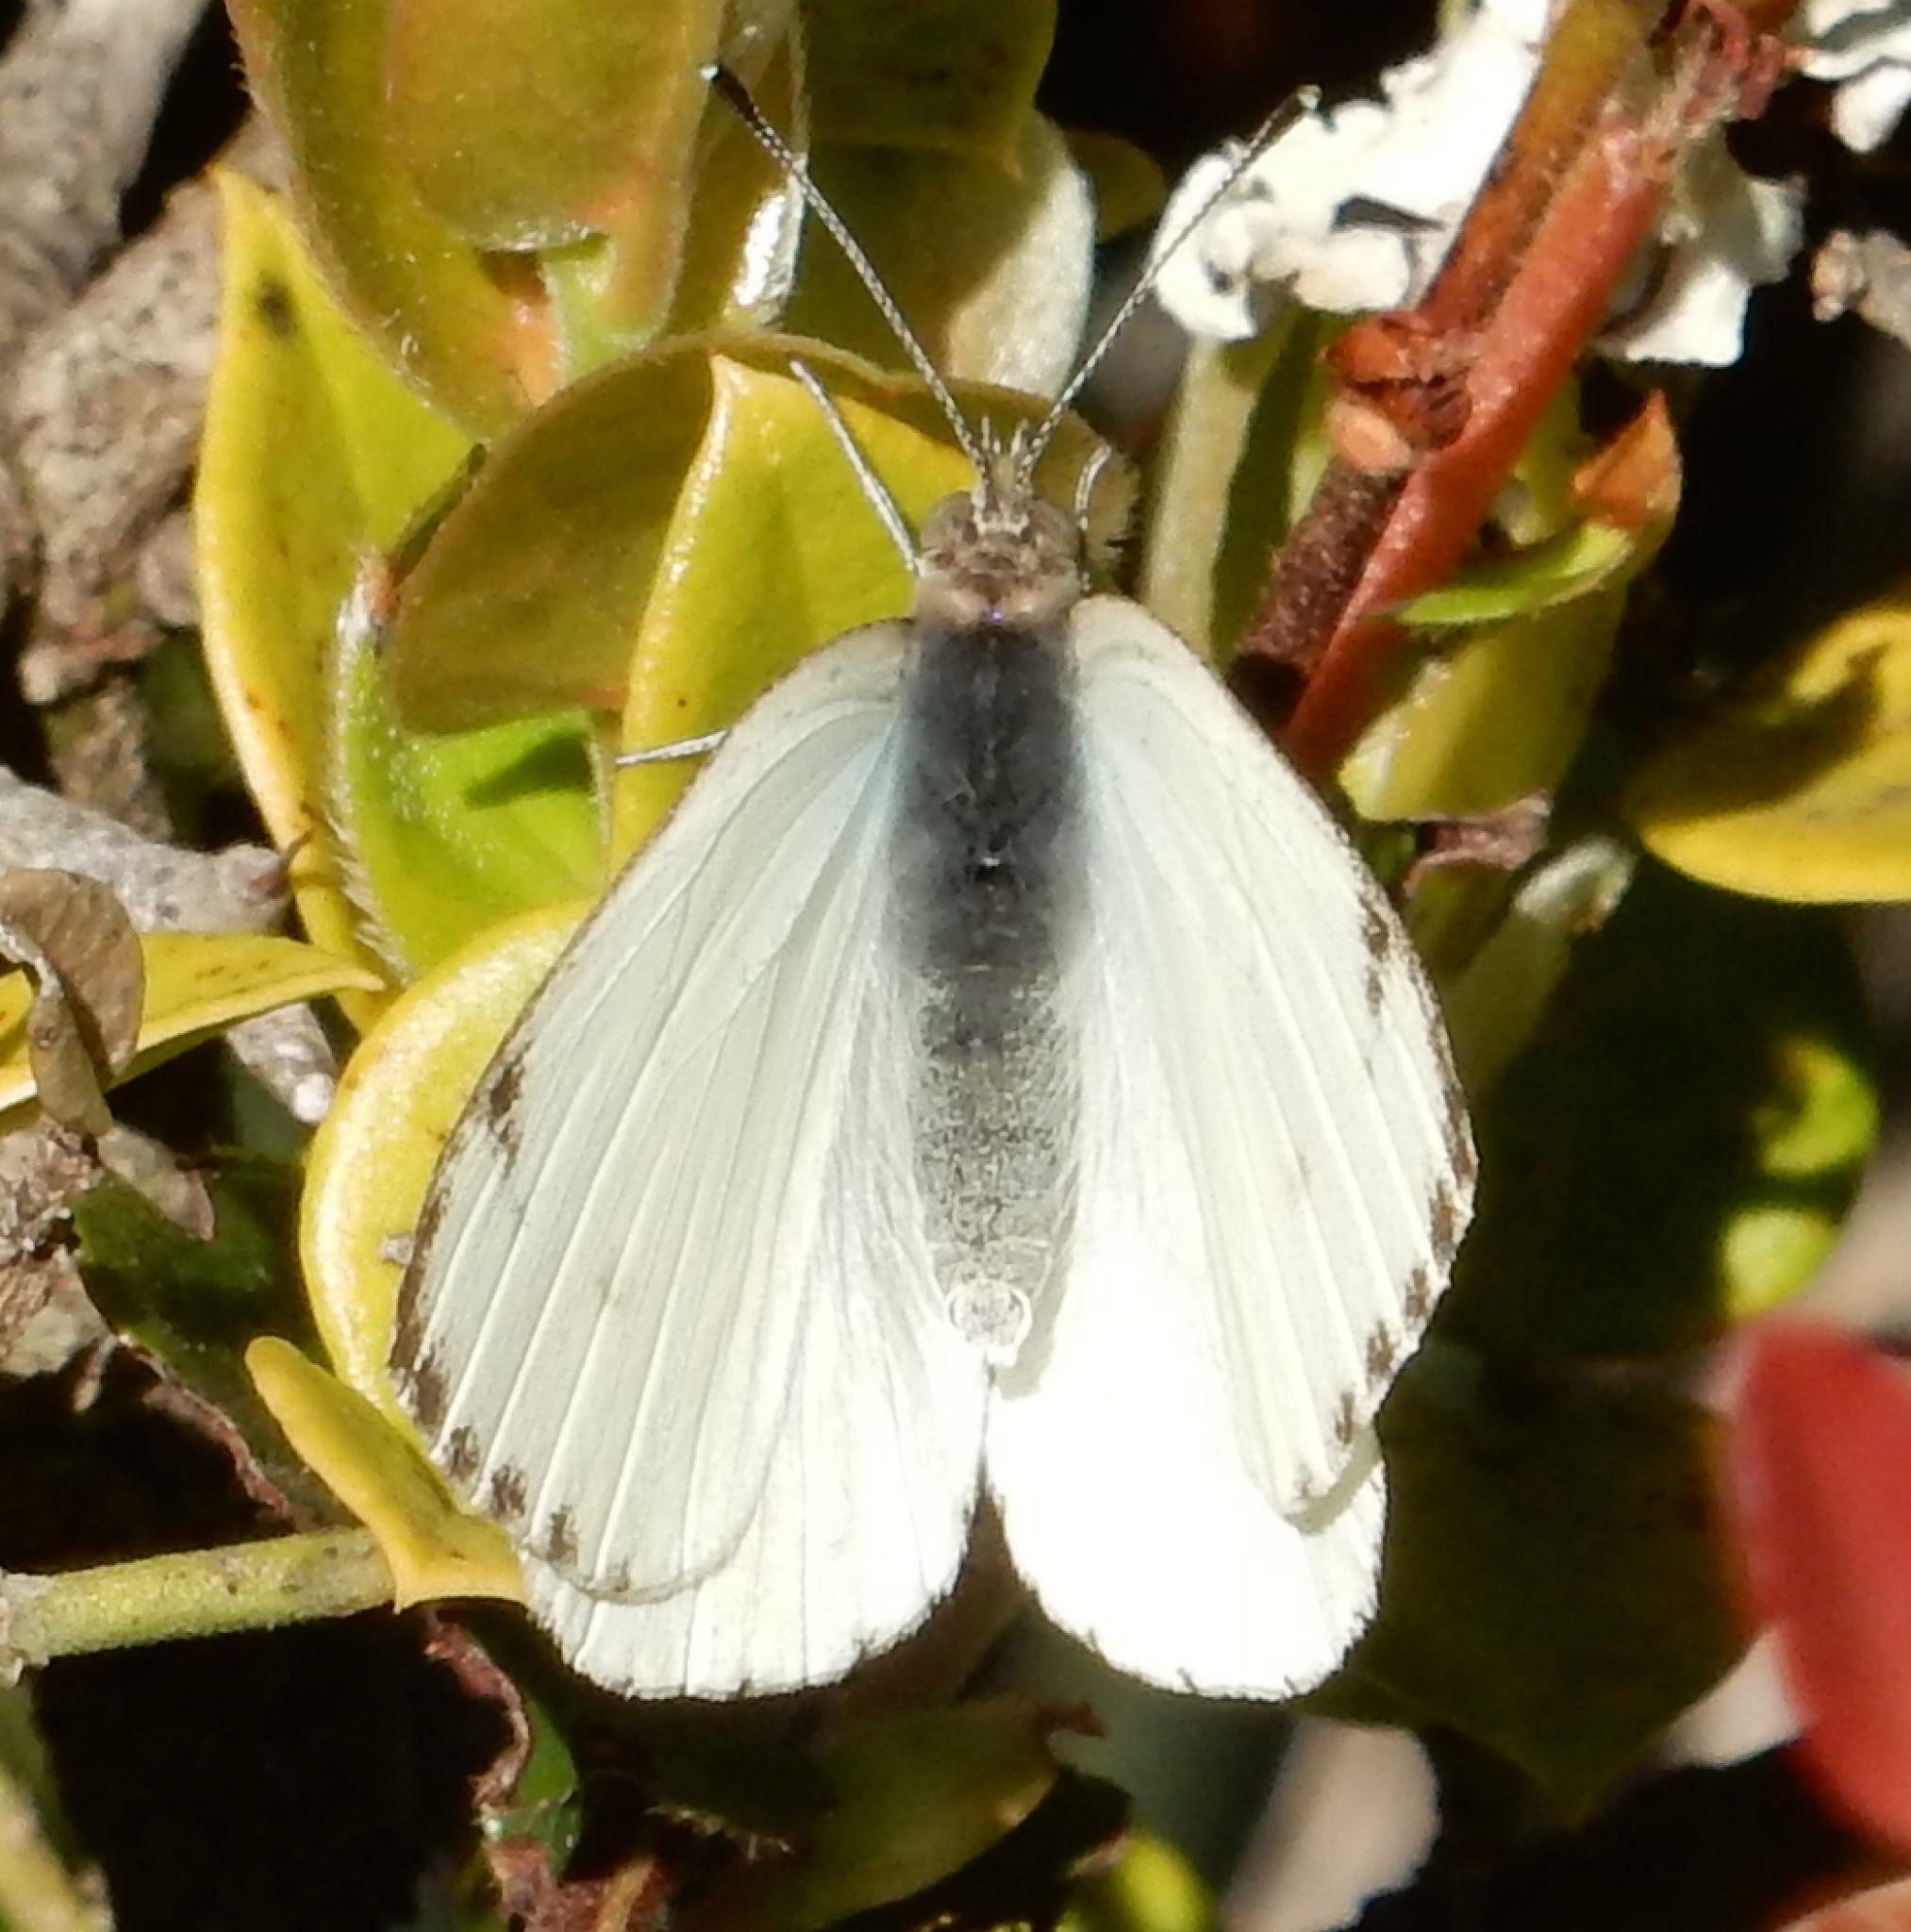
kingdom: Animalia
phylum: Arthropoda
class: Insecta
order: Lepidoptera
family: Pieridae
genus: Dixeia
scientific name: Dixeia charina
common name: African small white
